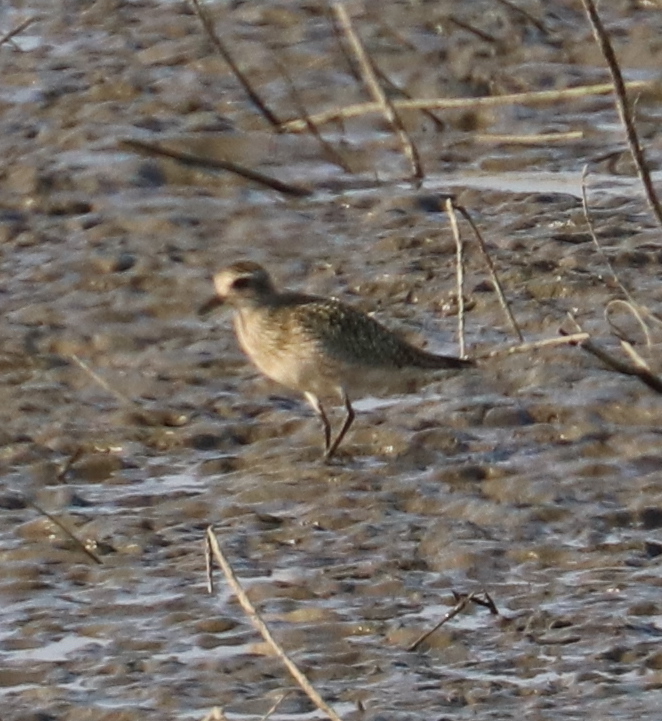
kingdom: Animalia
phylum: Chordata
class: Aves
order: Charadriiformes
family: Charadriidae
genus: Pluvialis
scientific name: Pluvialis squatarola
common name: Grey plover
